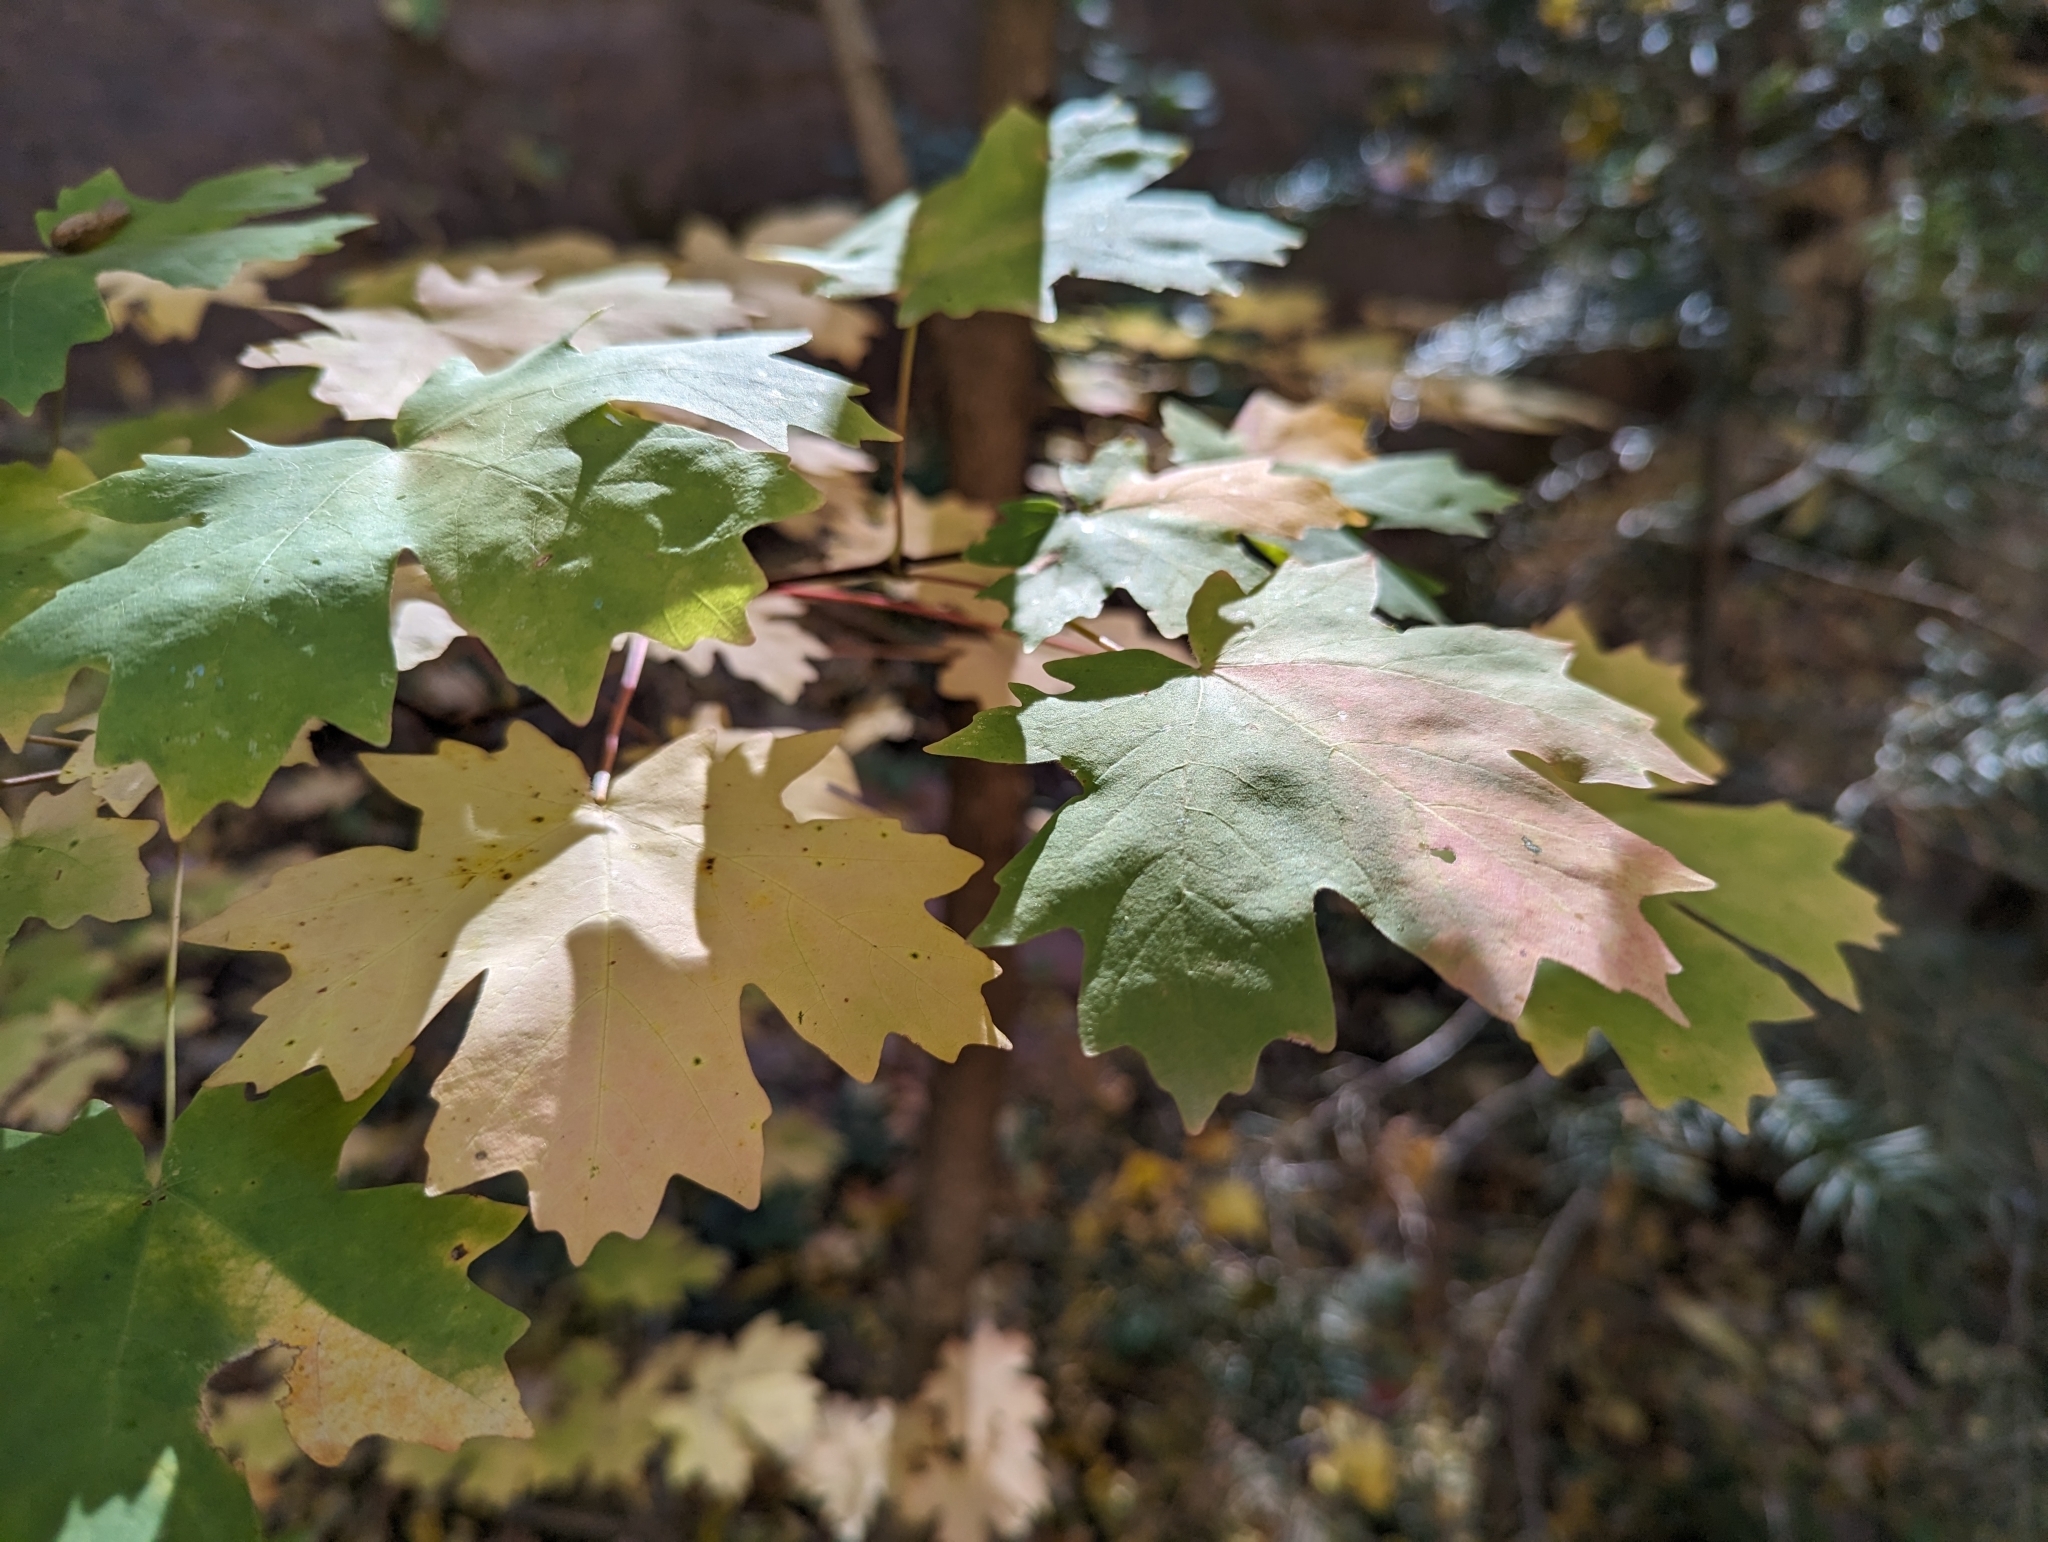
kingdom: Plantae
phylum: Tracheophyta
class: Magnoliopsida
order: Sapindales
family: Sapindaceae
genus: Acer
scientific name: Acer grandidentatum
